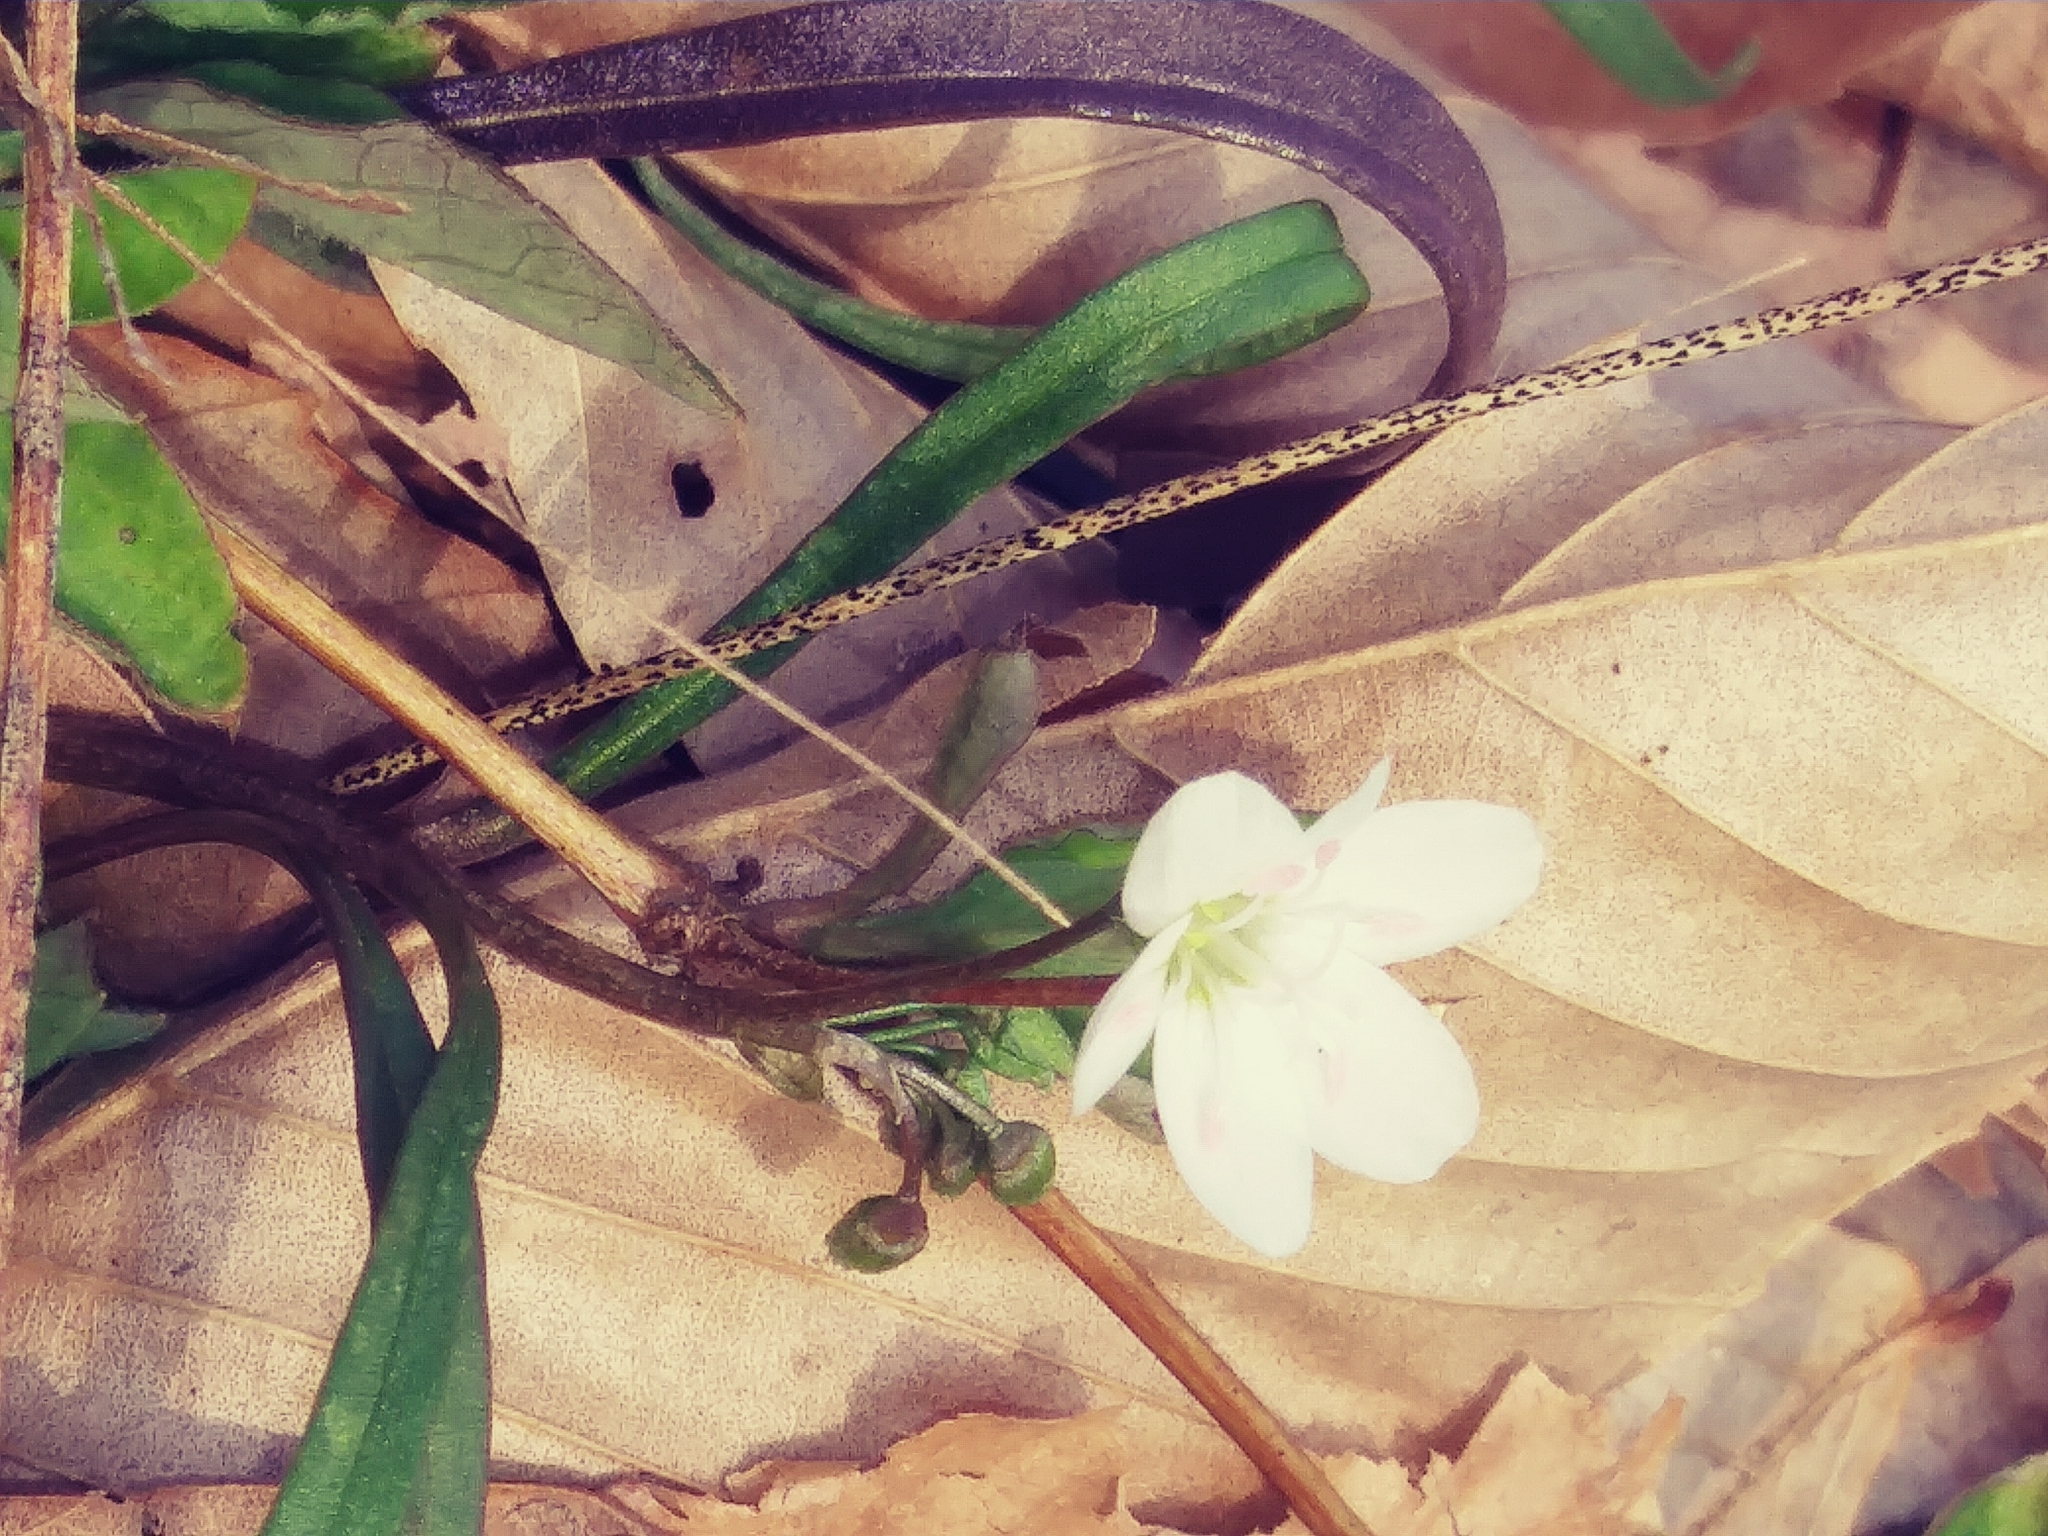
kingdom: Plantae
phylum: Tracheophyta
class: Magnoliopsida
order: Caryophyllales
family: Montiaceae
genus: Claytonia
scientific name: Claytonia virginica
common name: Virginia springbeauty
